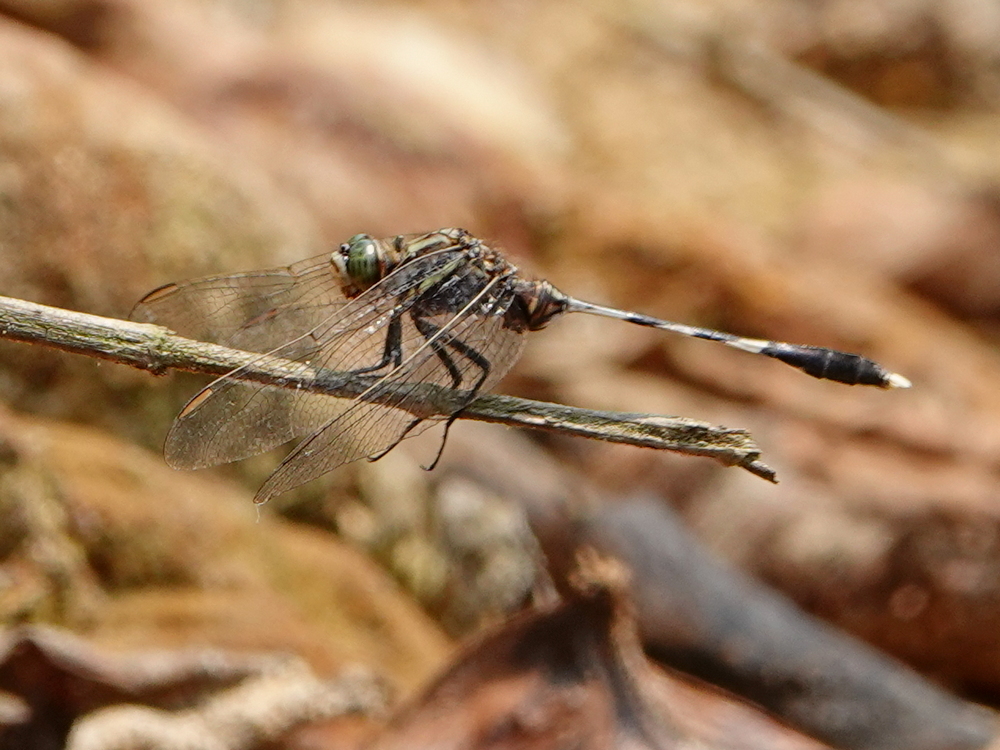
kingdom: Animalia
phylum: Arthropoda
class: Insecta
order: Odonata
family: Libellulidae
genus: Orthetrum
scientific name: Orthetrum sabina
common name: Slender skimmer
